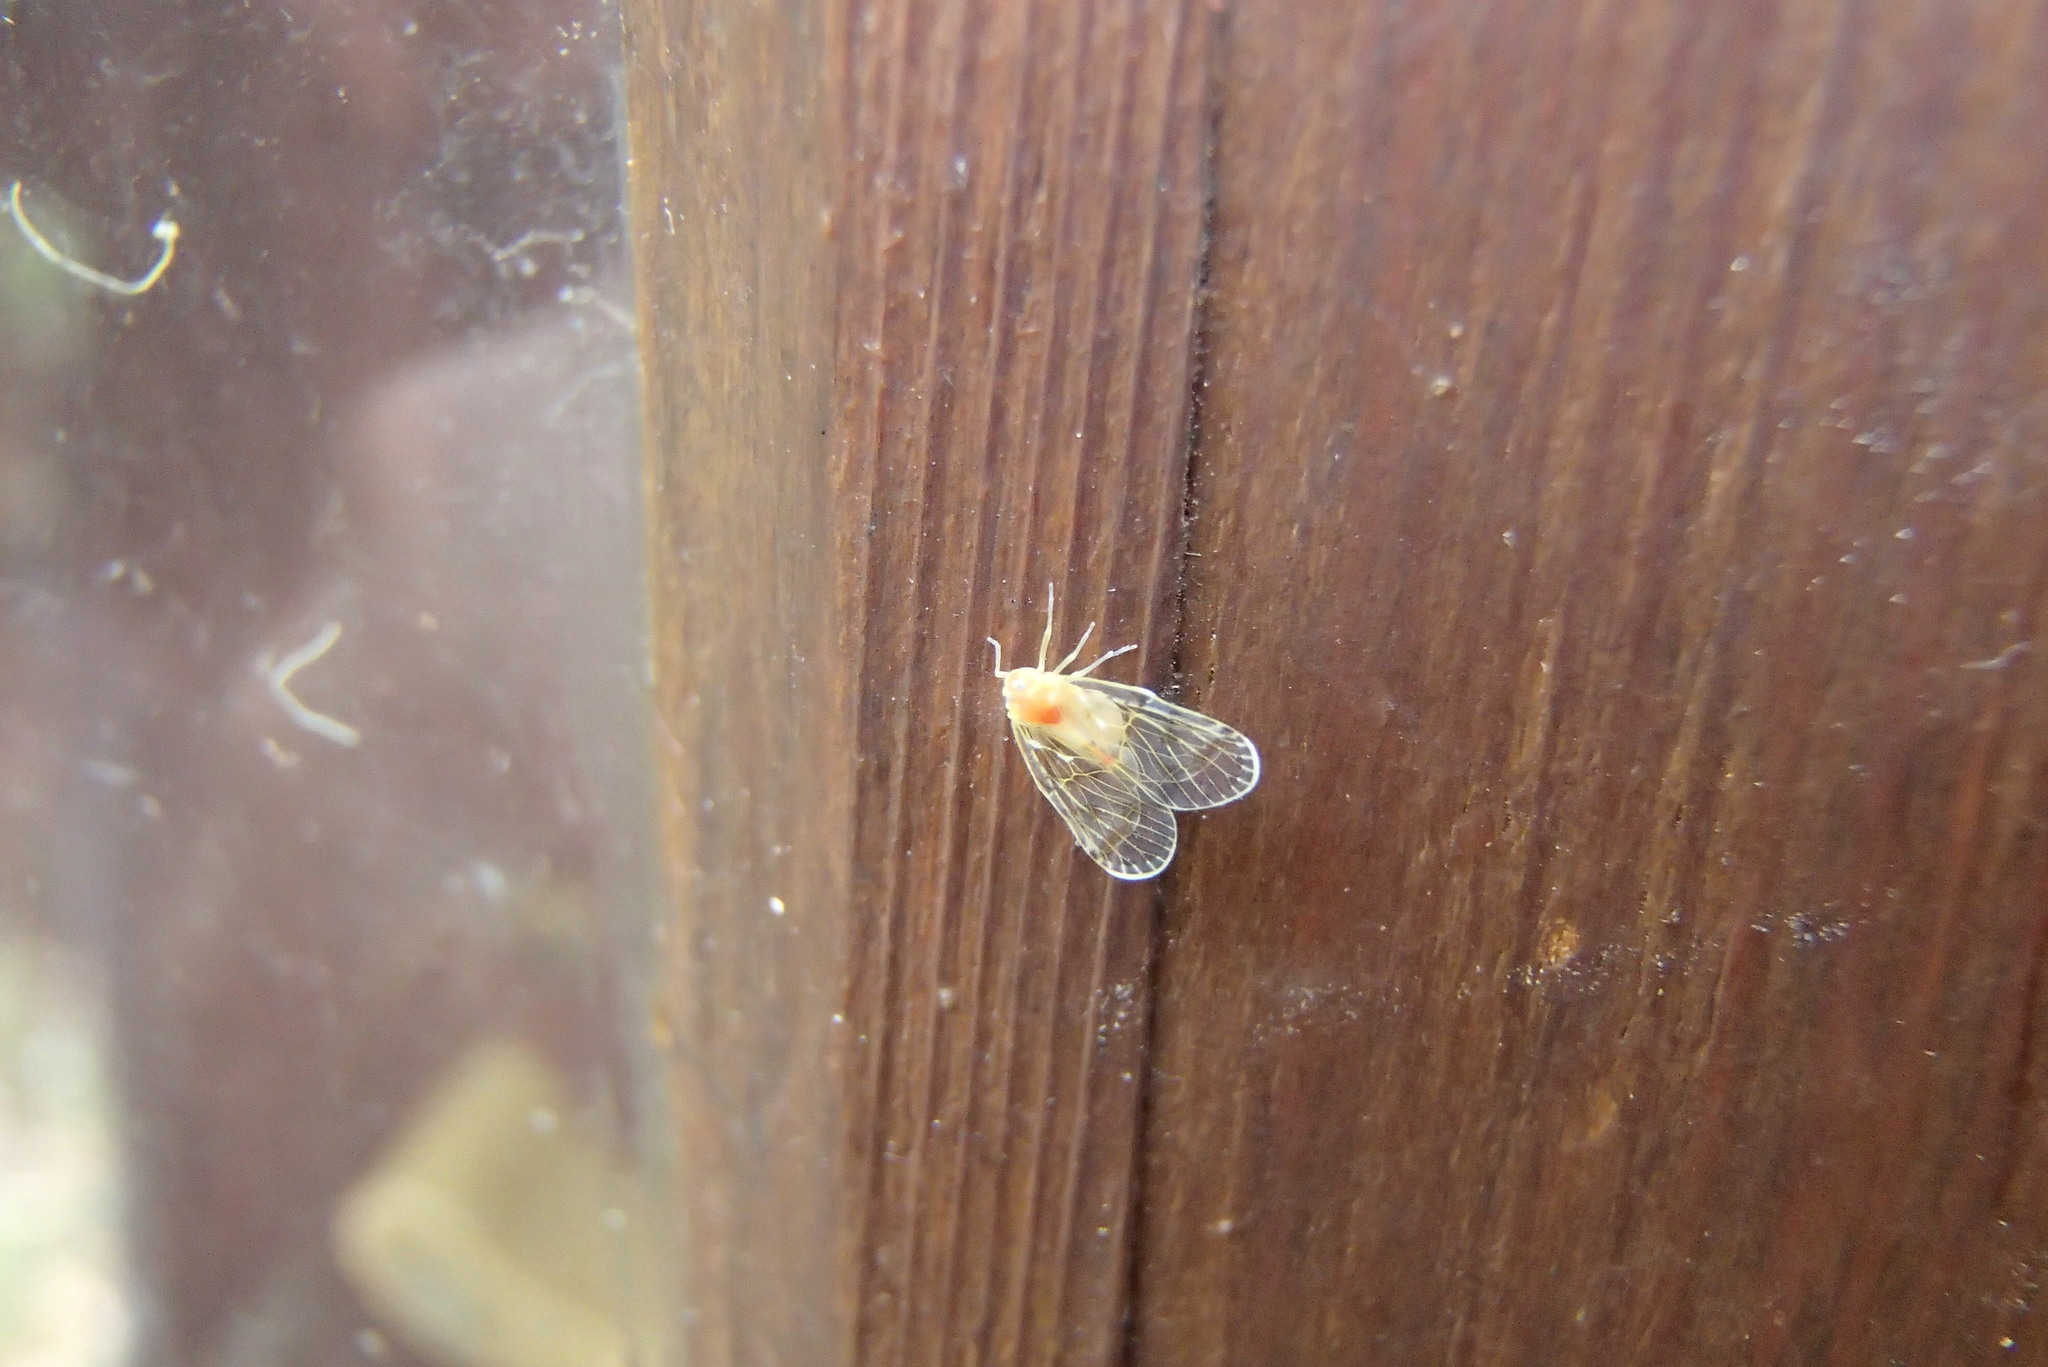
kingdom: Animalia
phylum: Arthropoda
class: Insecta
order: Hemiptera
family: Derbidae
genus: Saccharodite
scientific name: Saccharodite chrysonoe
